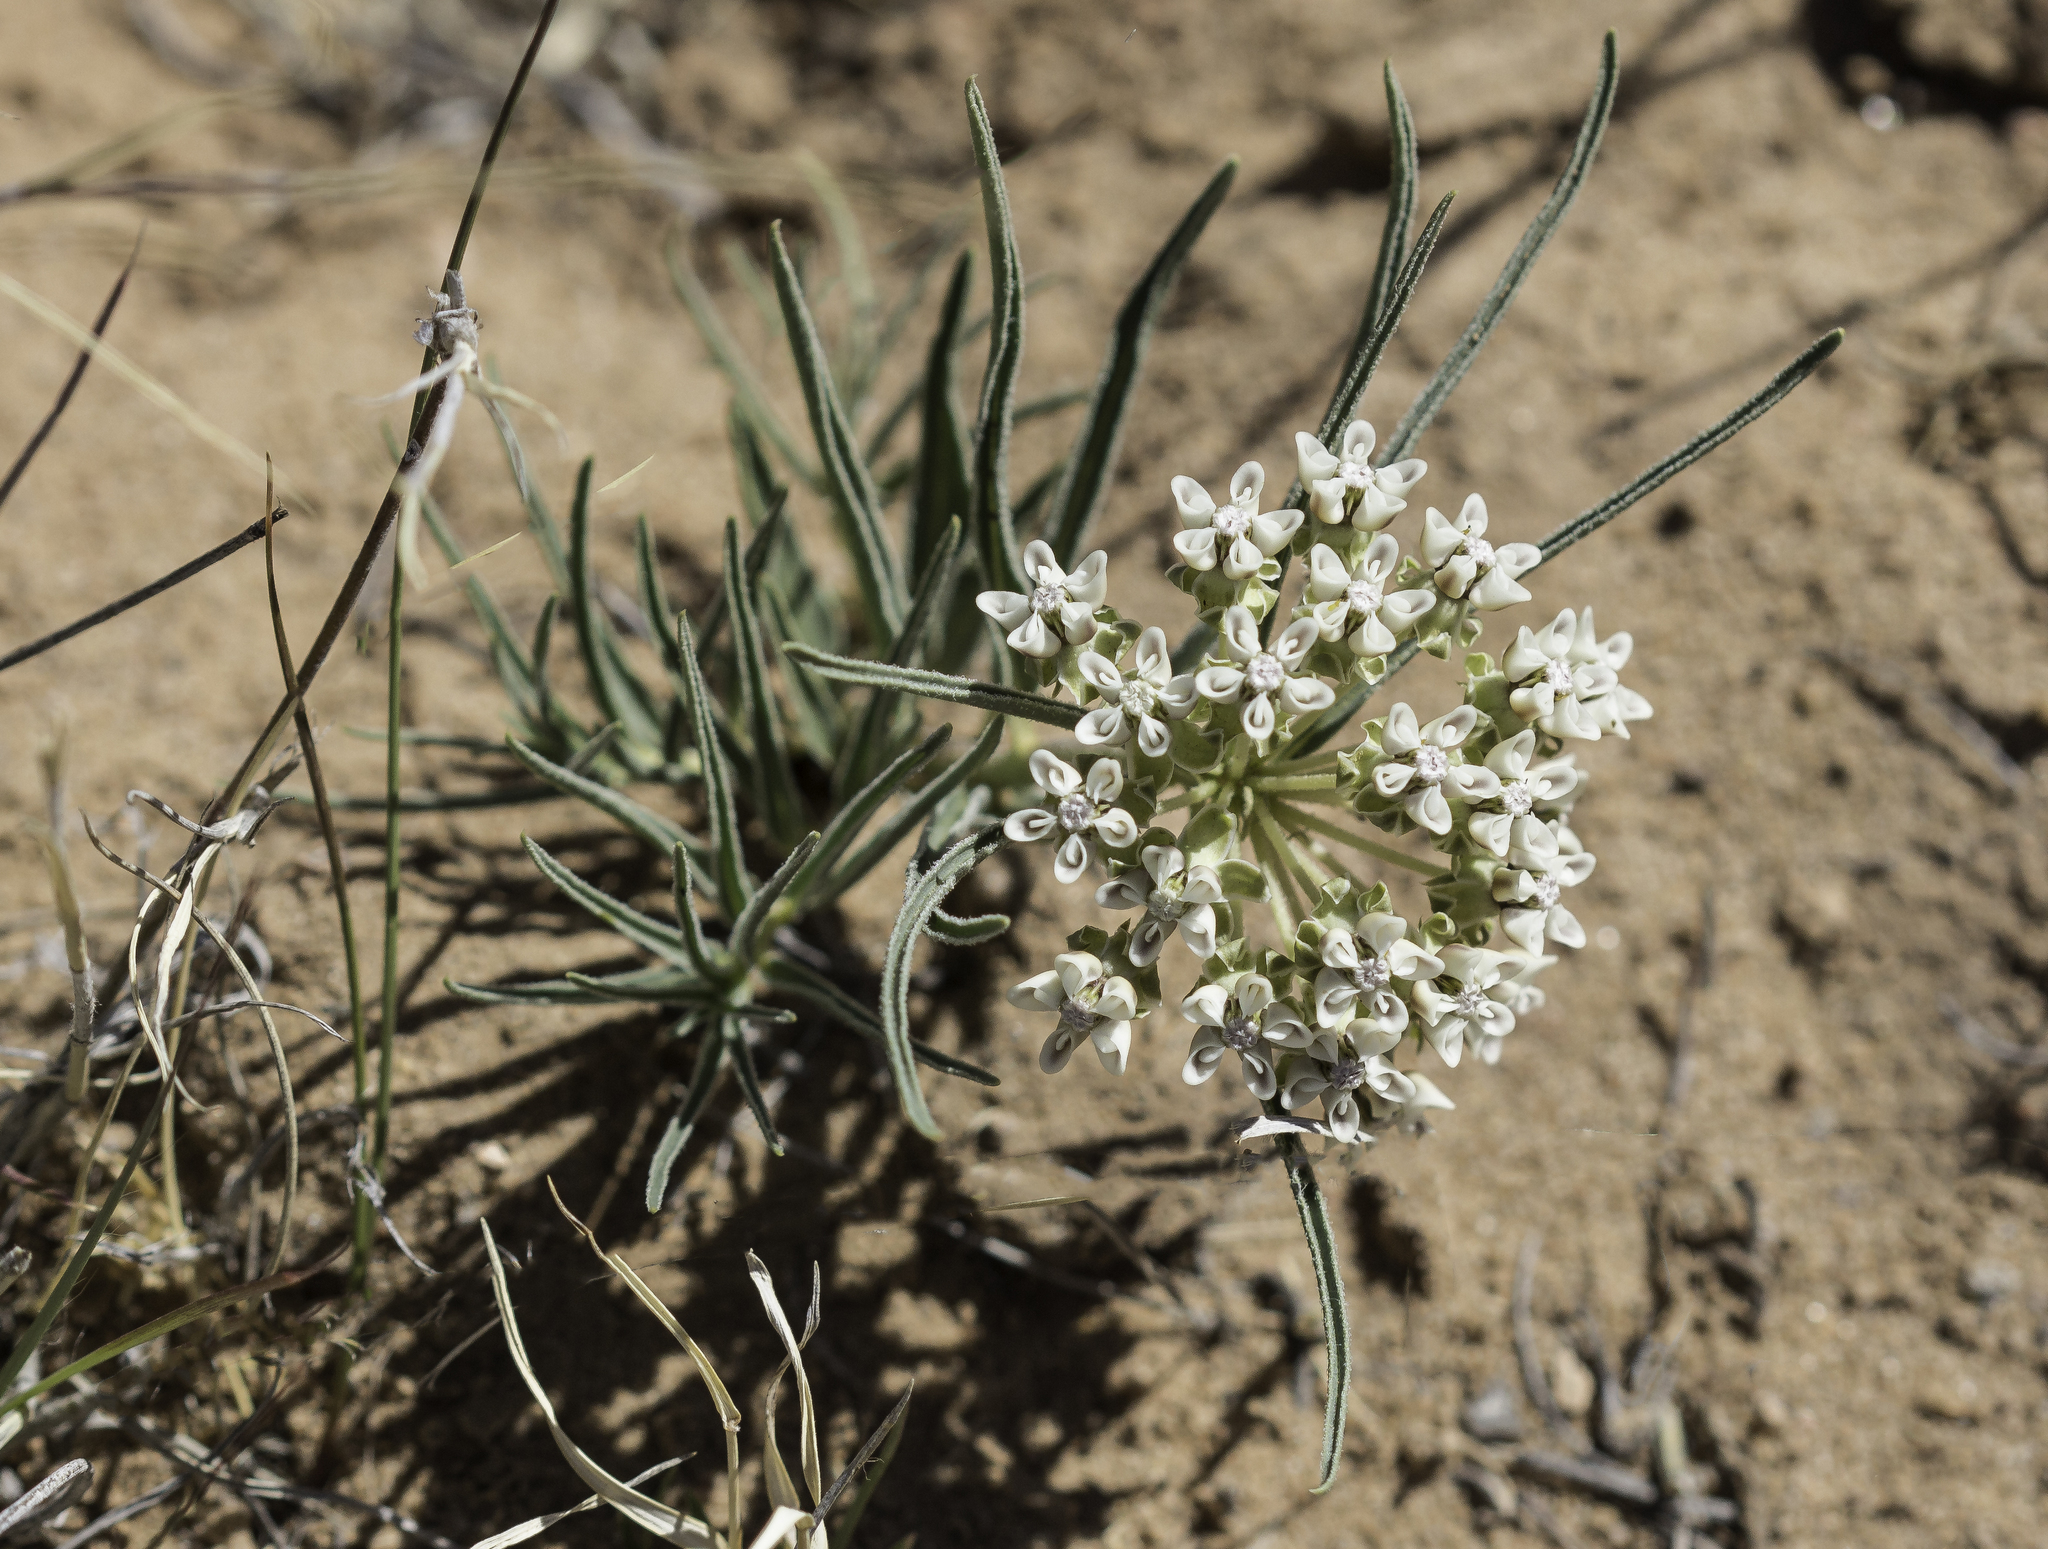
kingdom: Plantae
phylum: Tracheophyta
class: Magnoliopsida
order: Gentianales
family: Apocynaceae
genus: Asclepias
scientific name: Asclepias involucrata
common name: Dwarf milkweed
